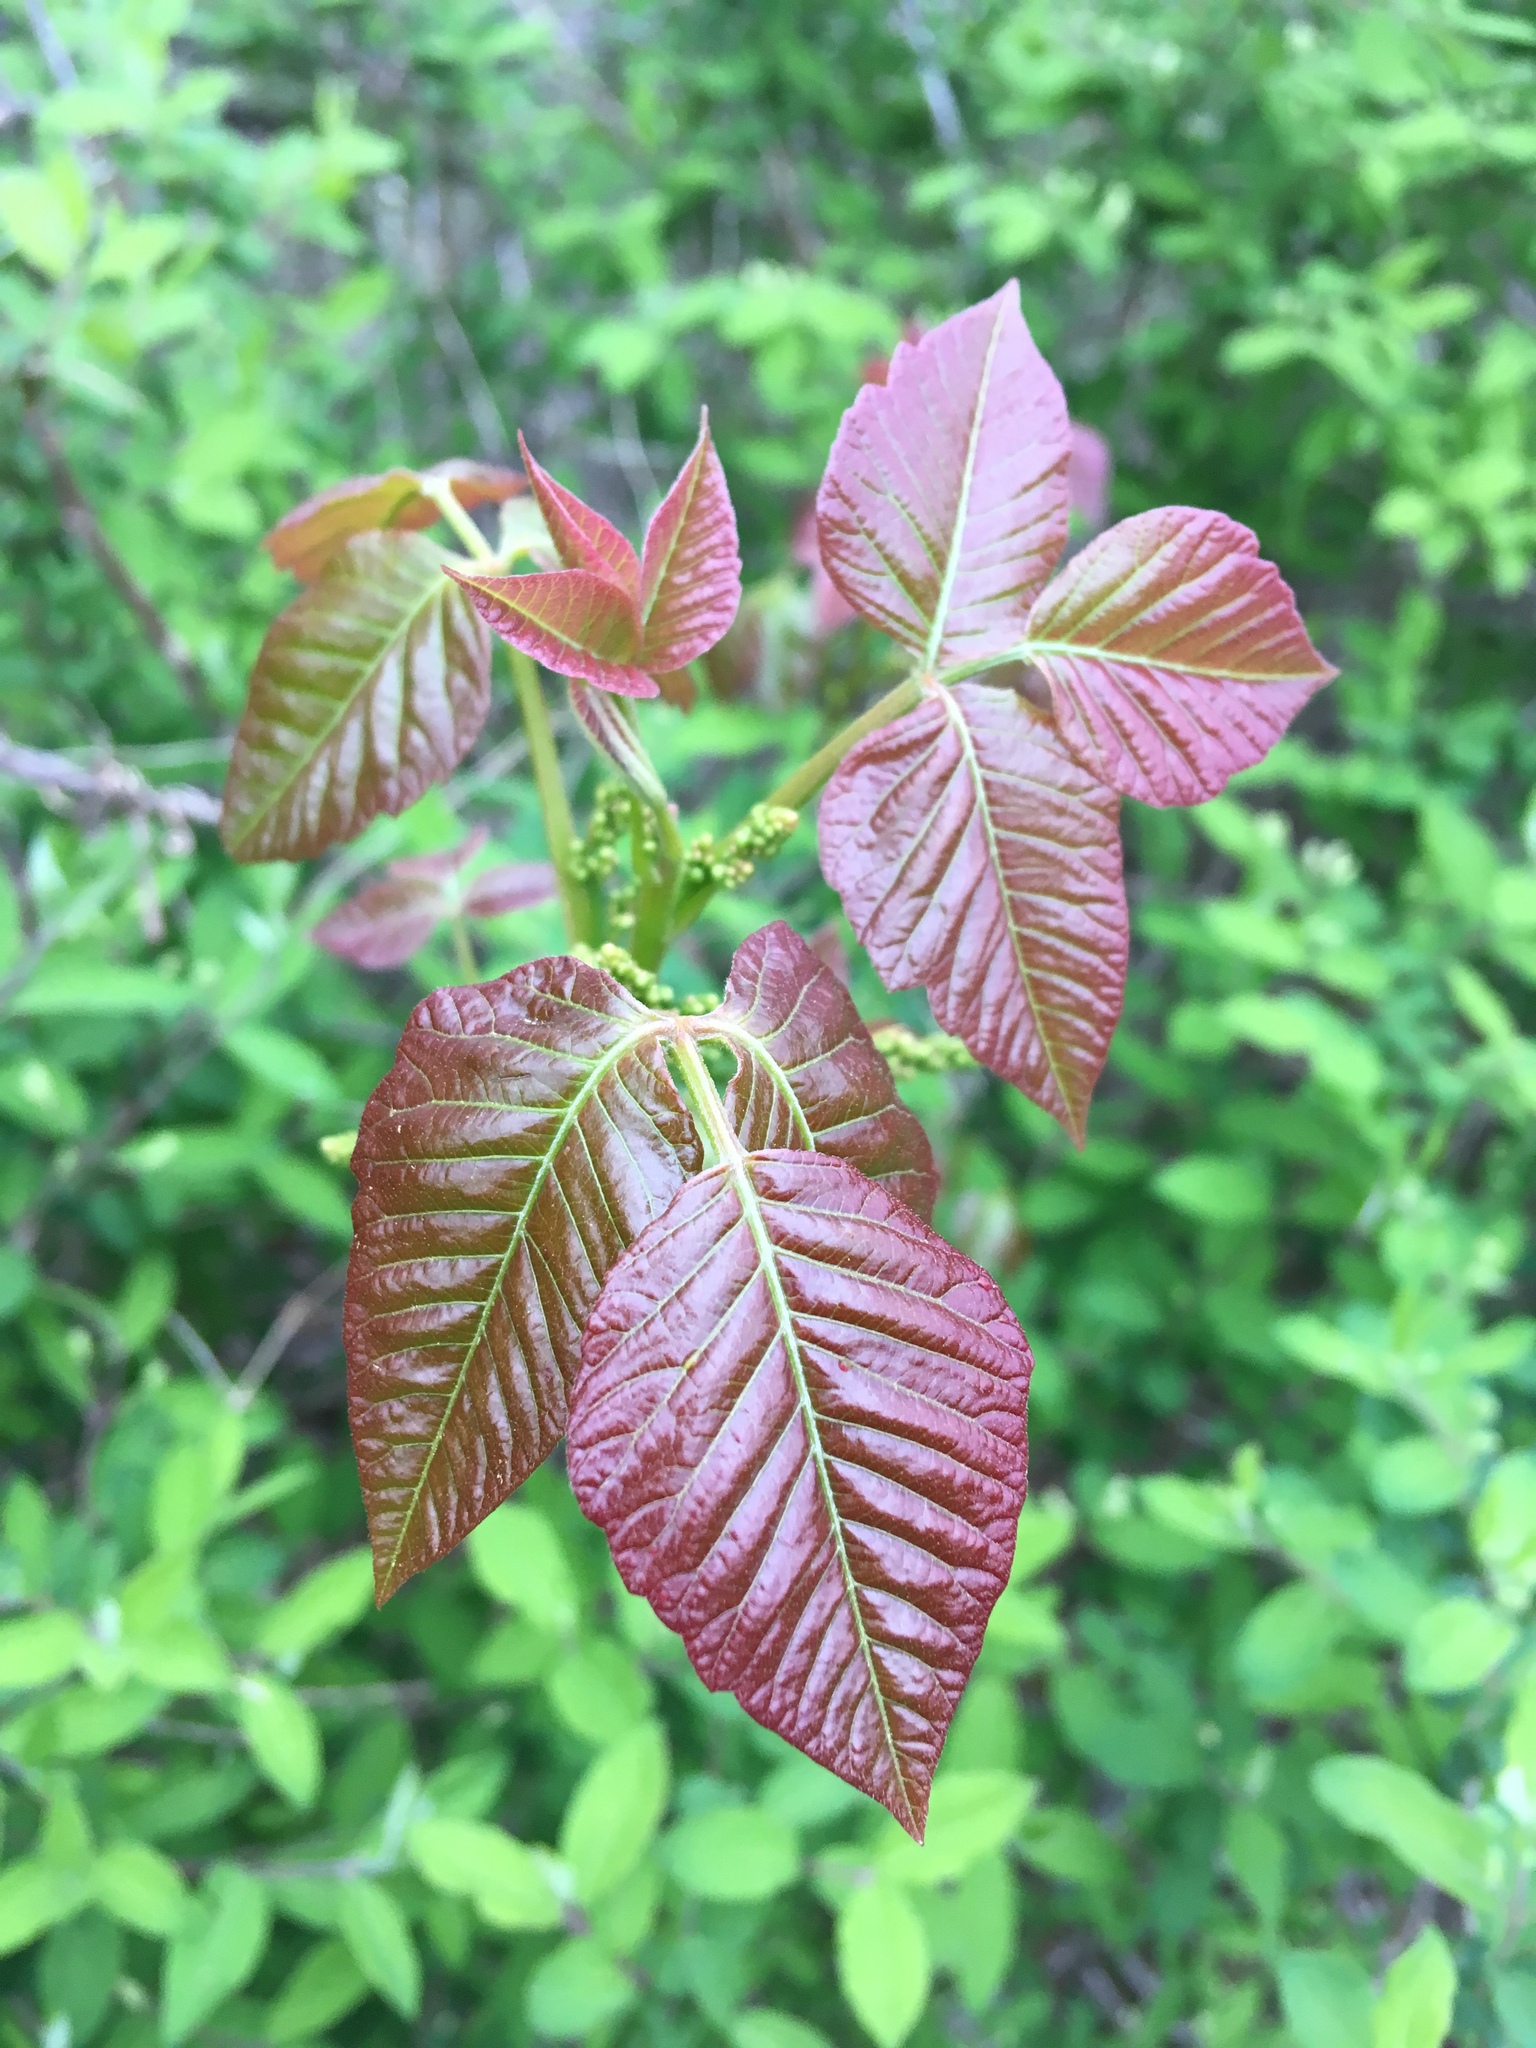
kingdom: Plantae
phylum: Tracheophyta
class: Magnoliopsida
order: Sapindales
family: Anacardiaceae
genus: Toxicodendron
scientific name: Toxicodendron radicans
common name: Poison ivy
